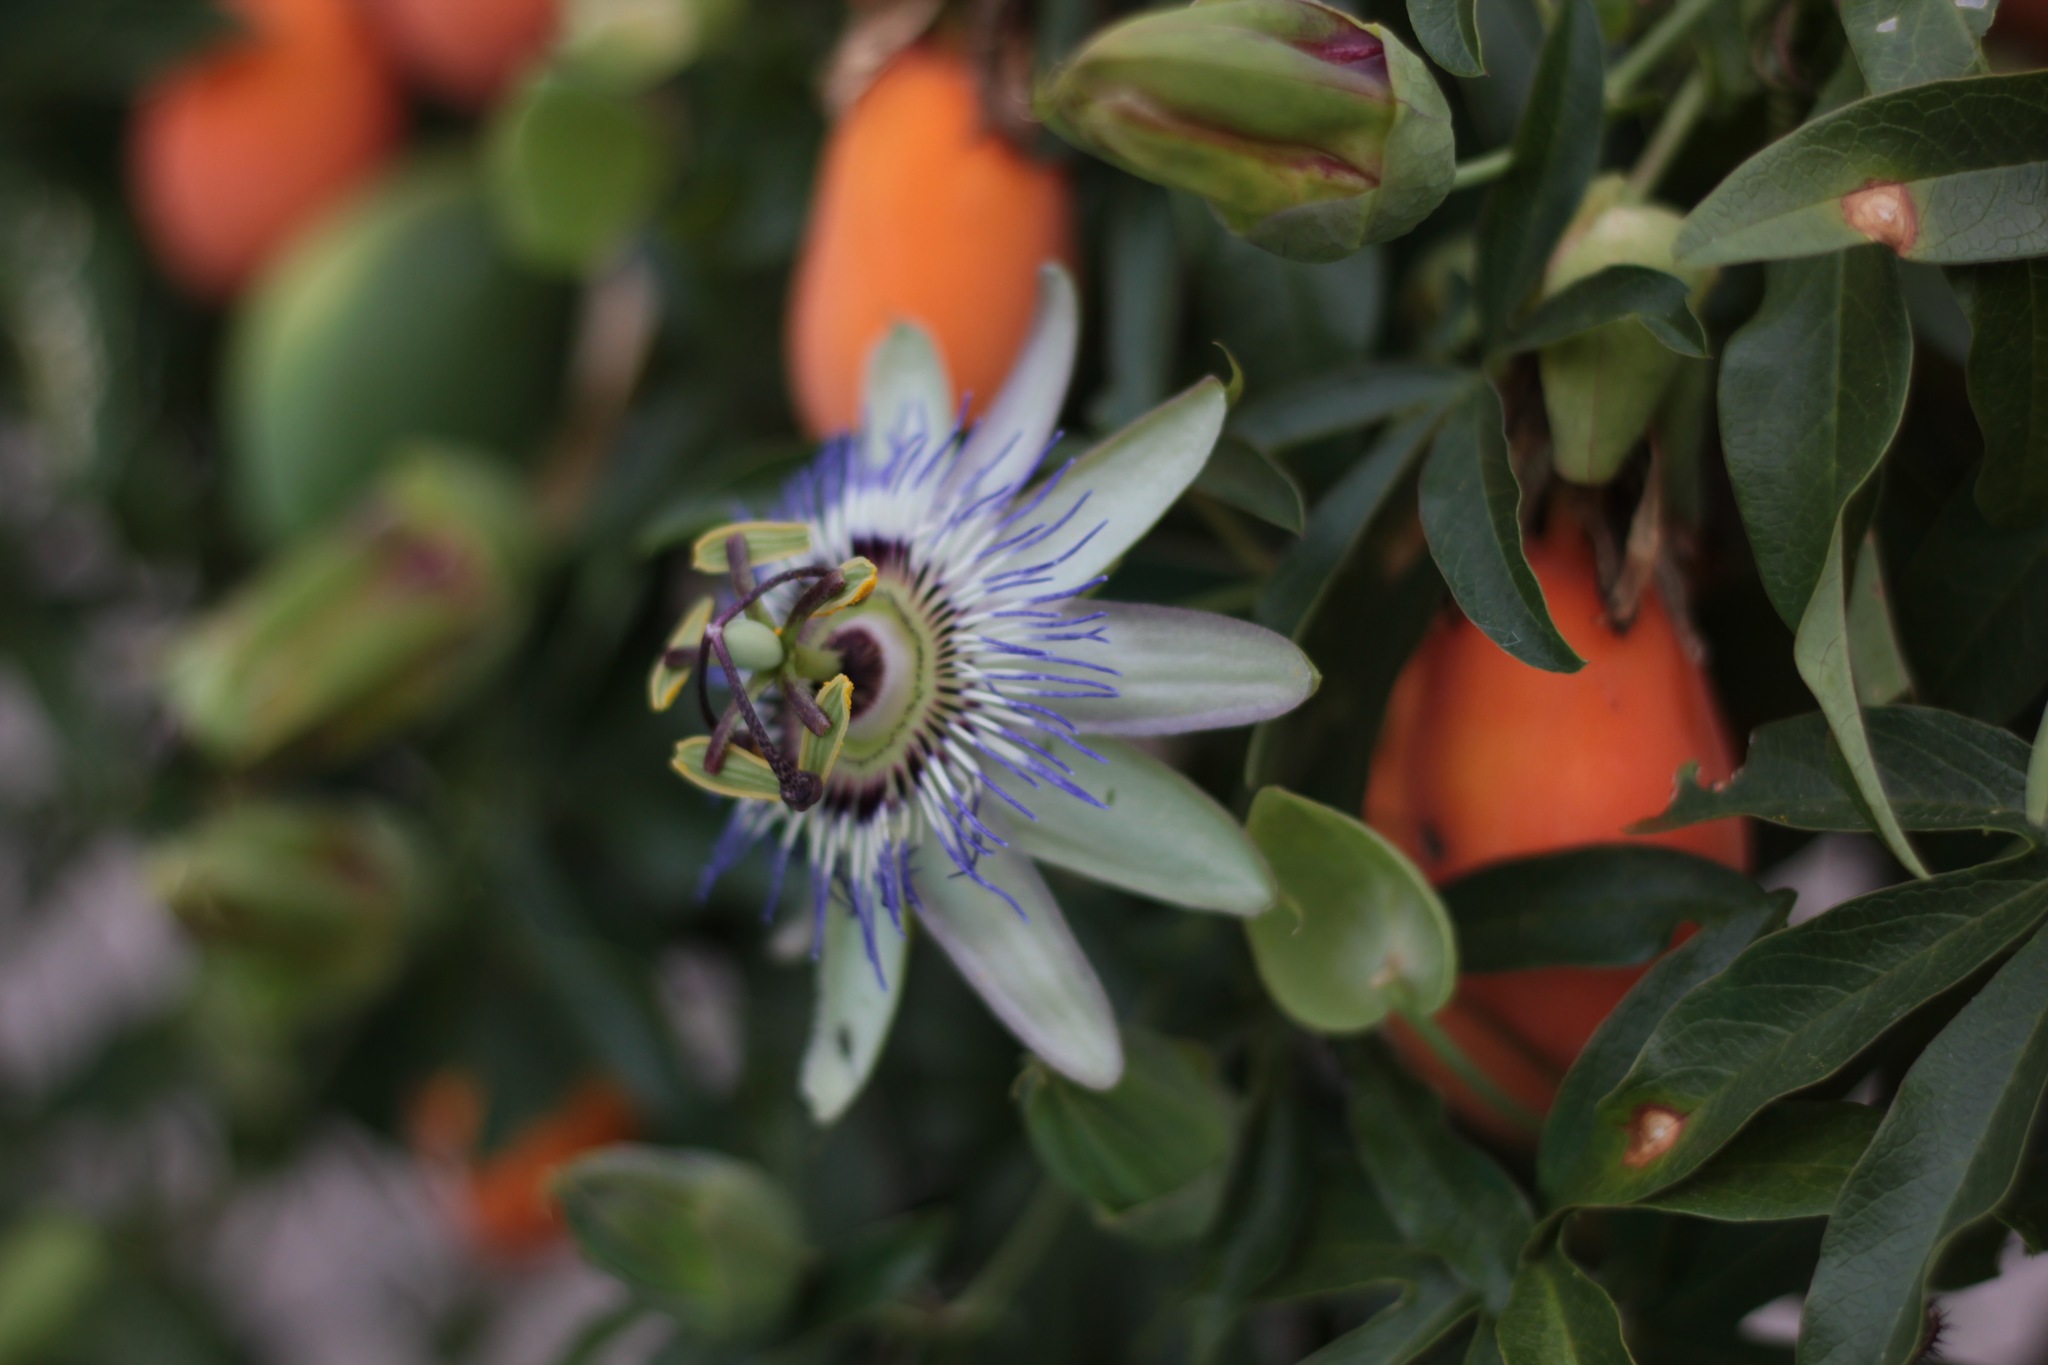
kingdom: Plantae
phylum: Tracheophyta
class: Magnoliopsida
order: Malpighiales
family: Passifloraceae
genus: Passiflora
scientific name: Passiflora caerulea
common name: Blue passionflower
